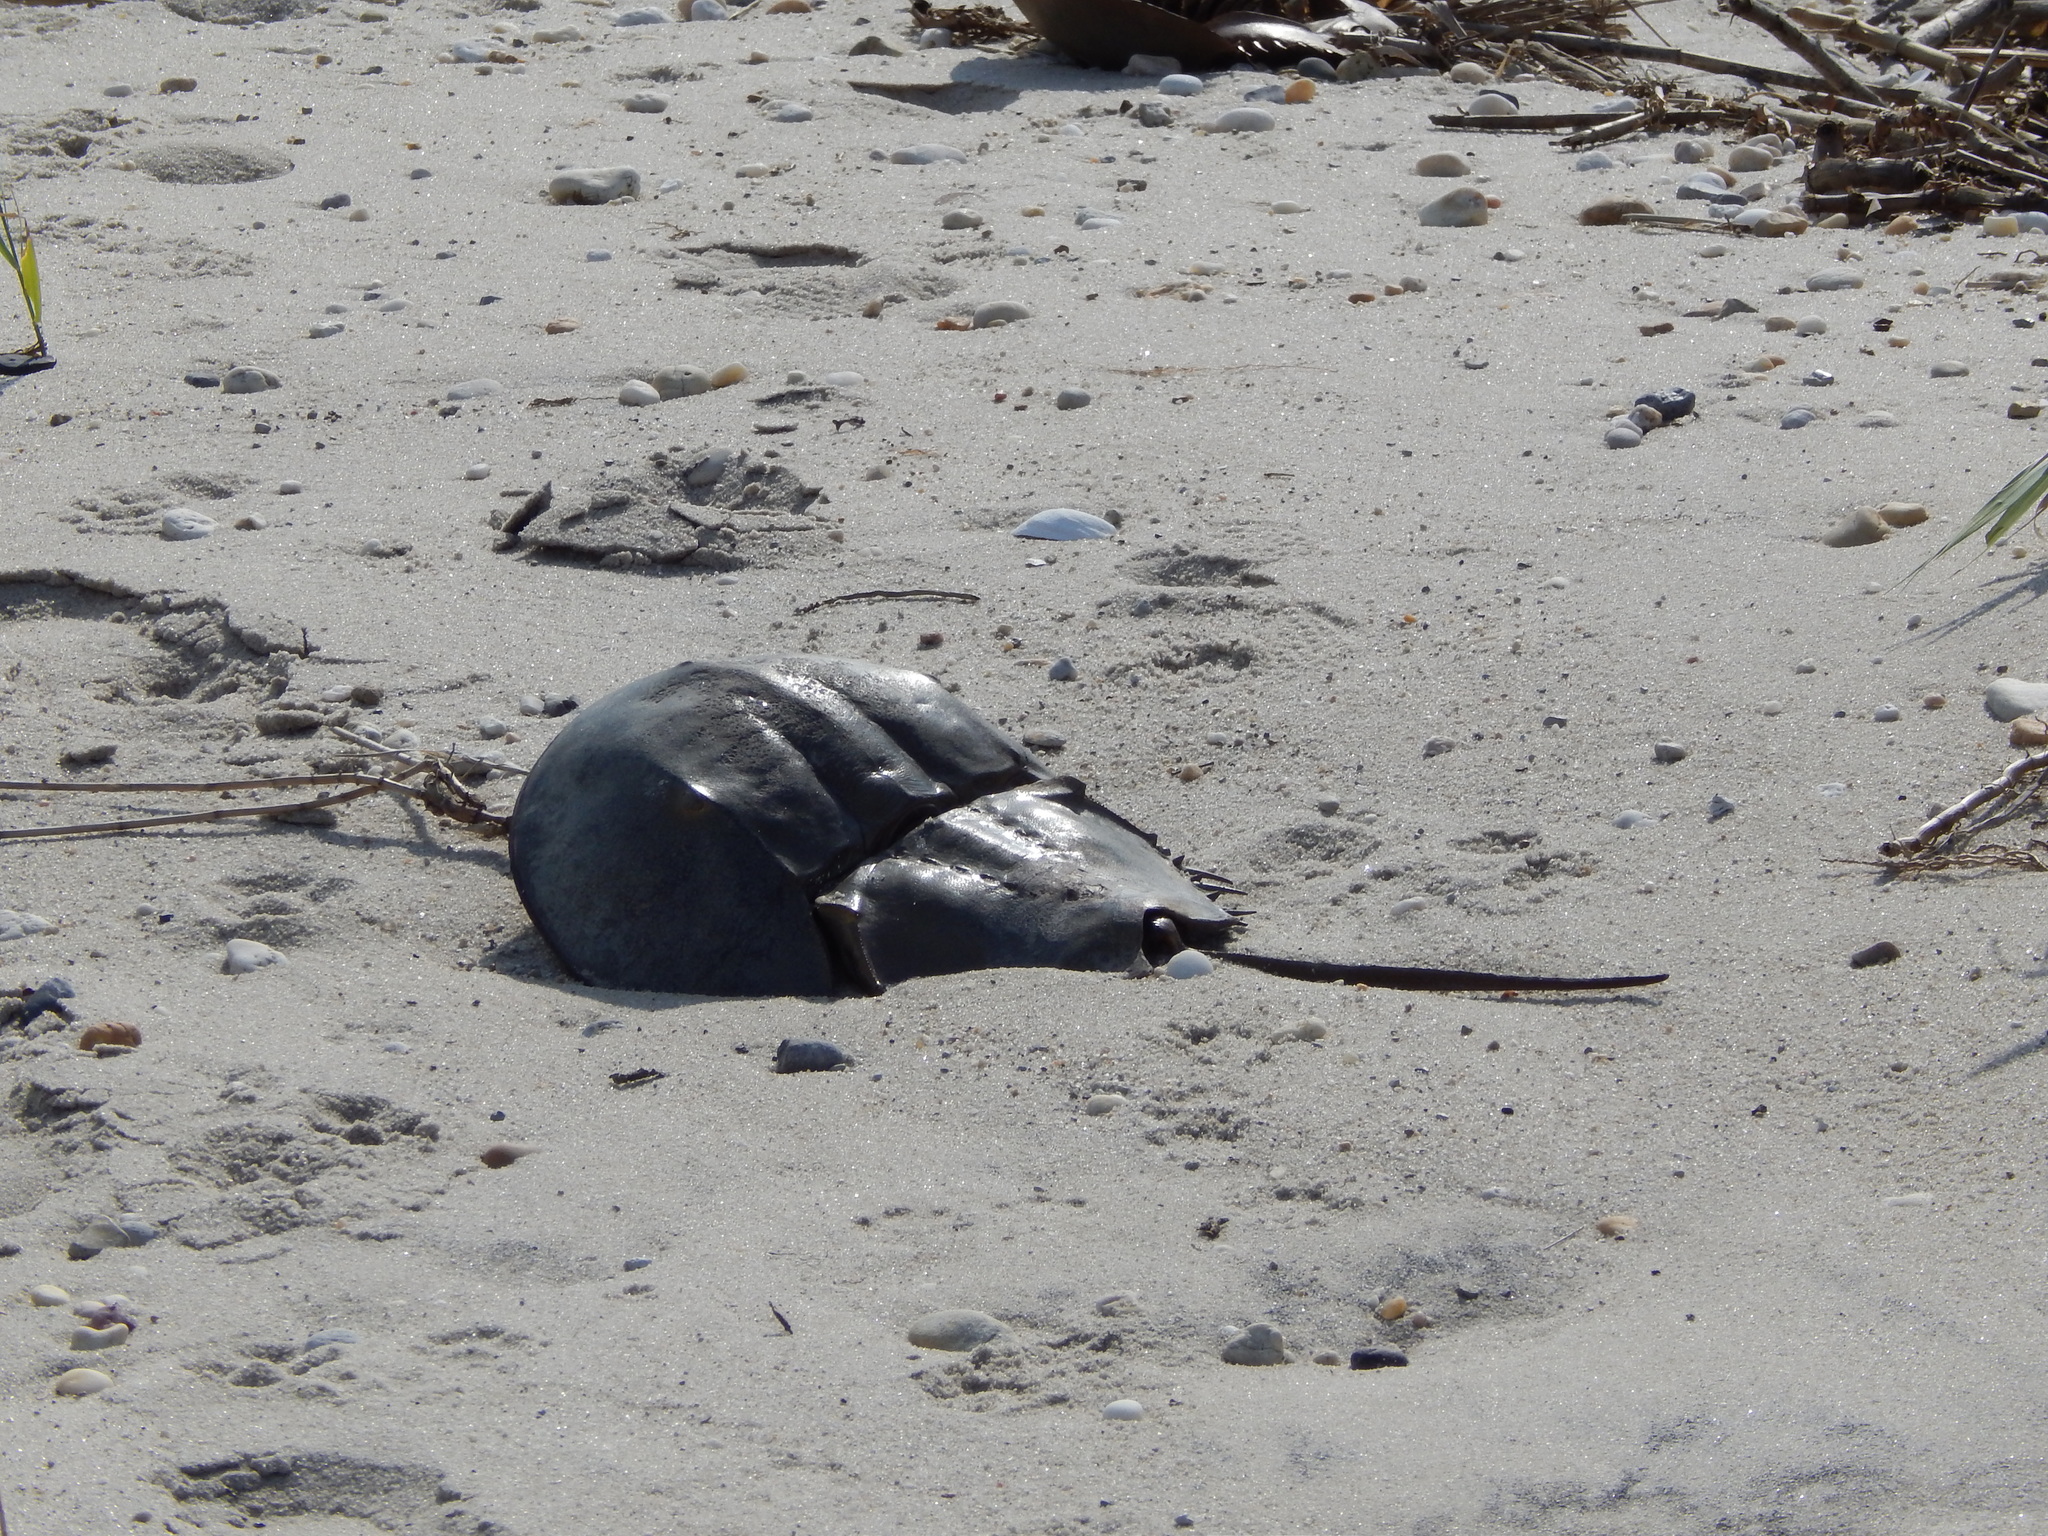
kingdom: Animalia
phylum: Arthropoda
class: Merostomata
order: Xiphosurida
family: Limulidae
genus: Limulus
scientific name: Limulus polyphemus
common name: Horseshoe crab
